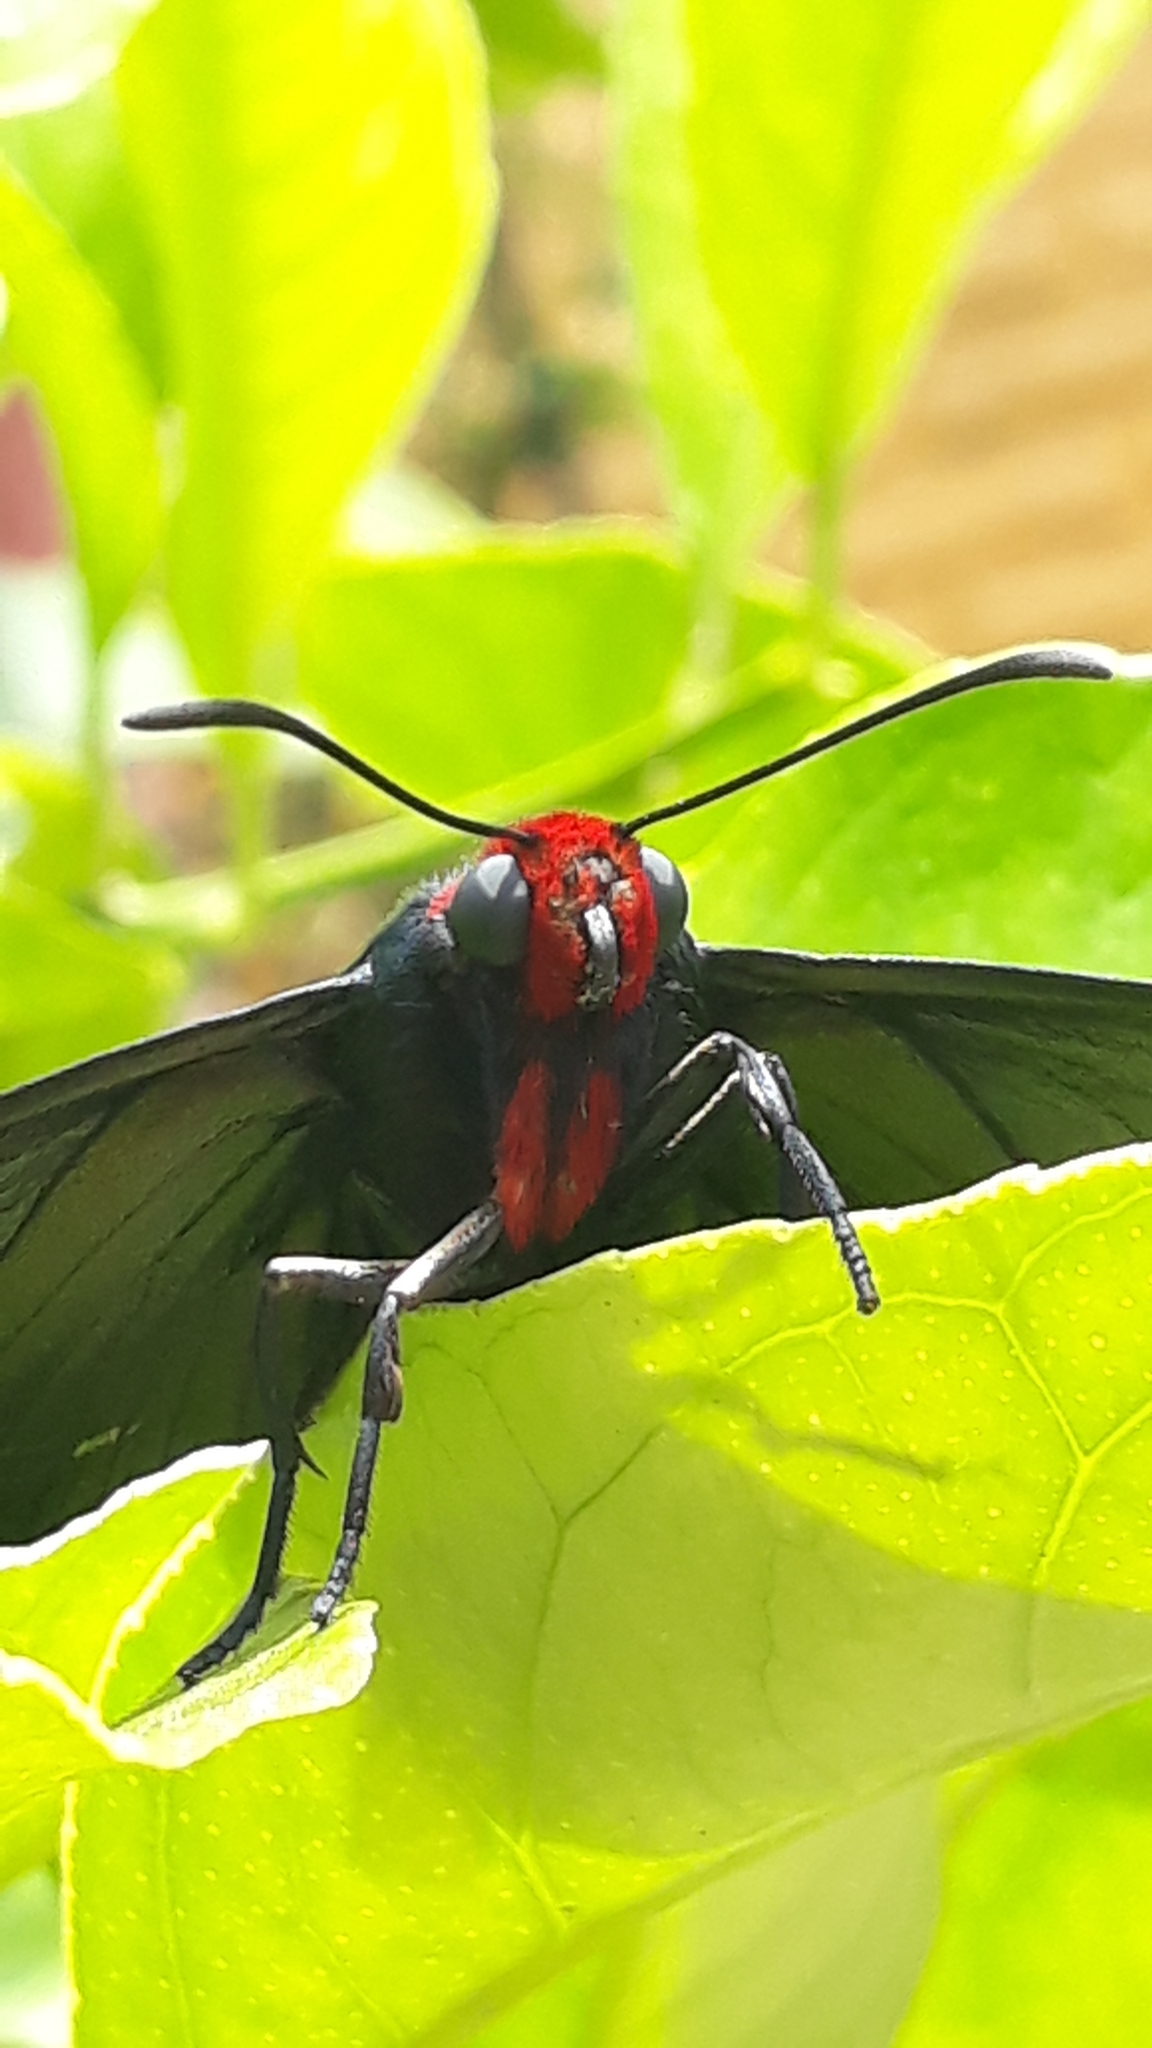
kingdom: Animalia
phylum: Arthropoda
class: Insecta
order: Lepidoptera
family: Hesperiidae
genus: Pyrrhopyge
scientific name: Pyrrhopyge charybdis
